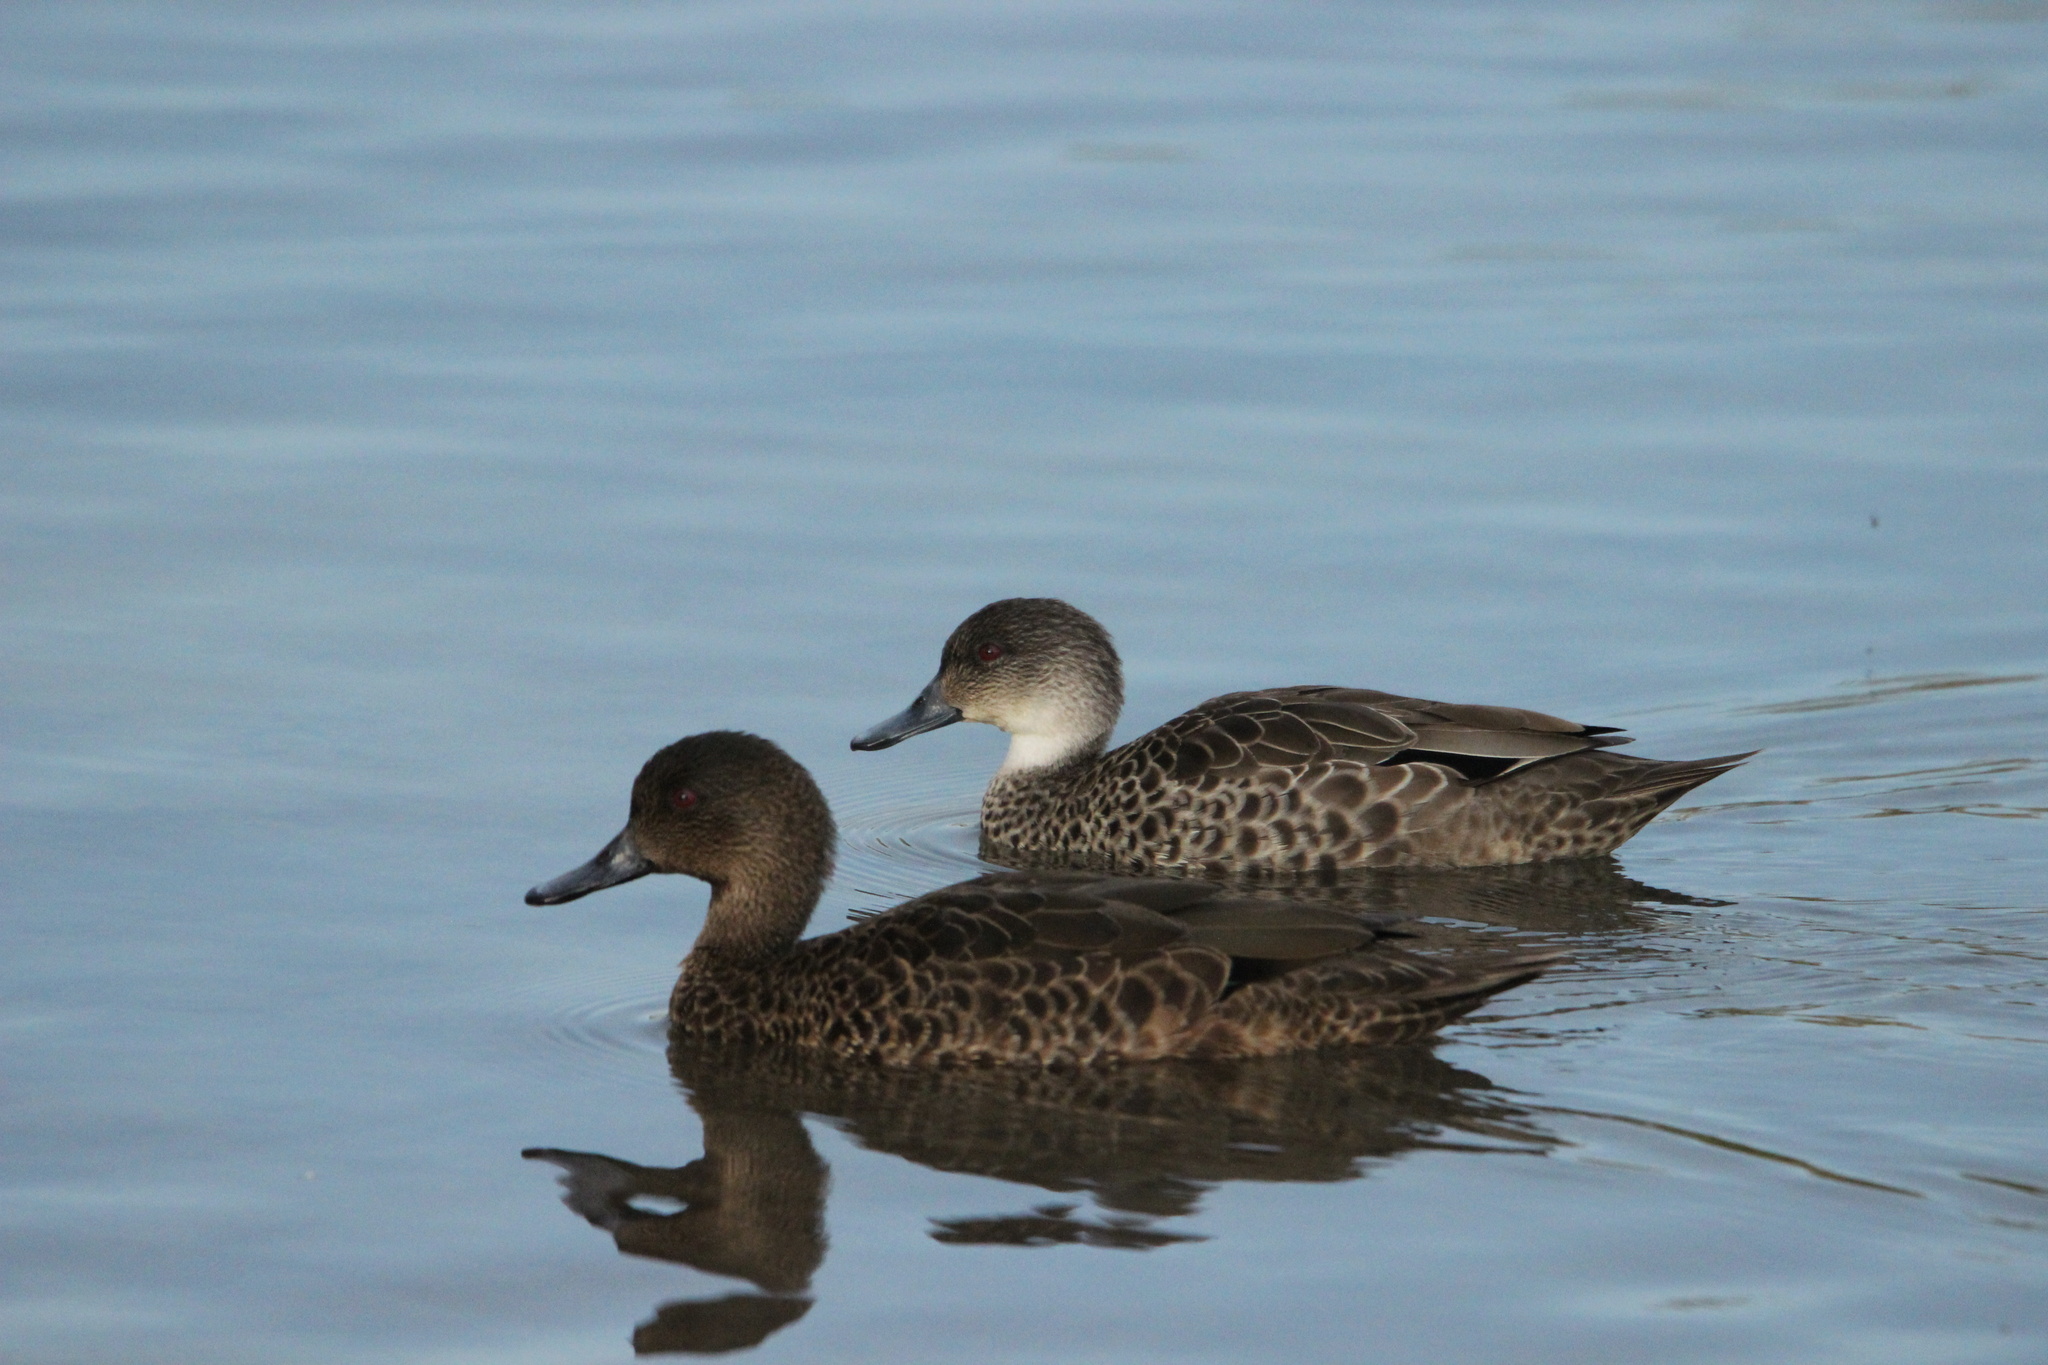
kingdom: Animalia
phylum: Chordata
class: Aves
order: Anseriformes
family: Anatidae
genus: Anas
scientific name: Anas castanea
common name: Chestnut teal
